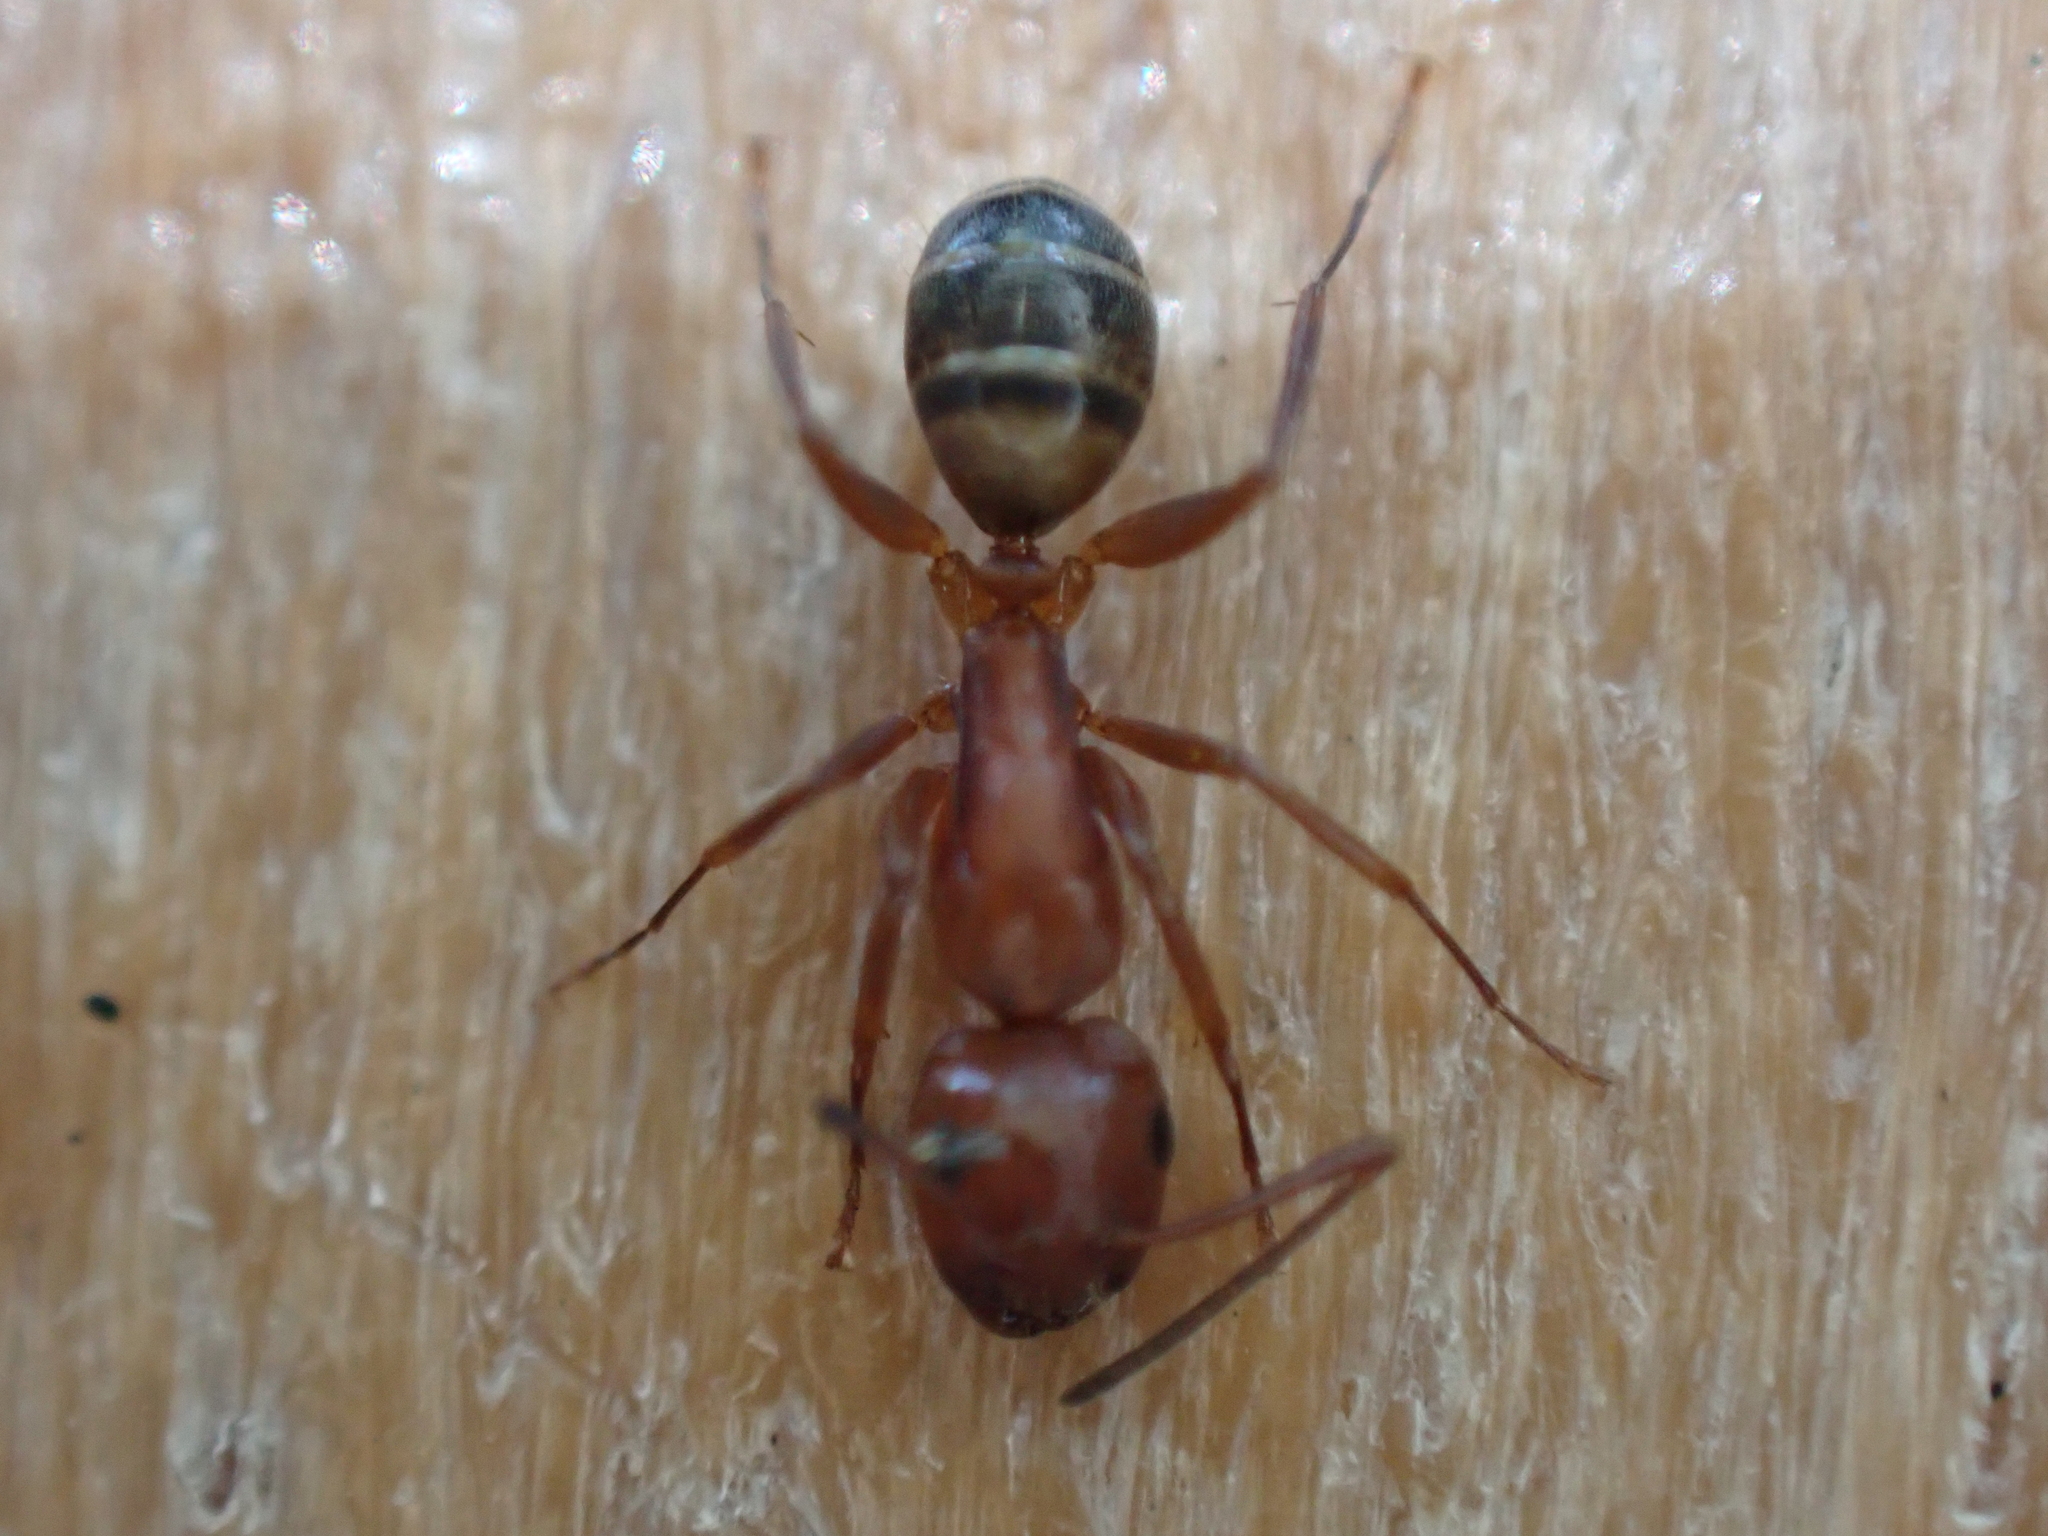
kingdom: Animalia
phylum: Arthropoda
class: Insecta
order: Hymenoptera
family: Formicidae
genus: Camponotus
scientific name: Camponotus snellingi
